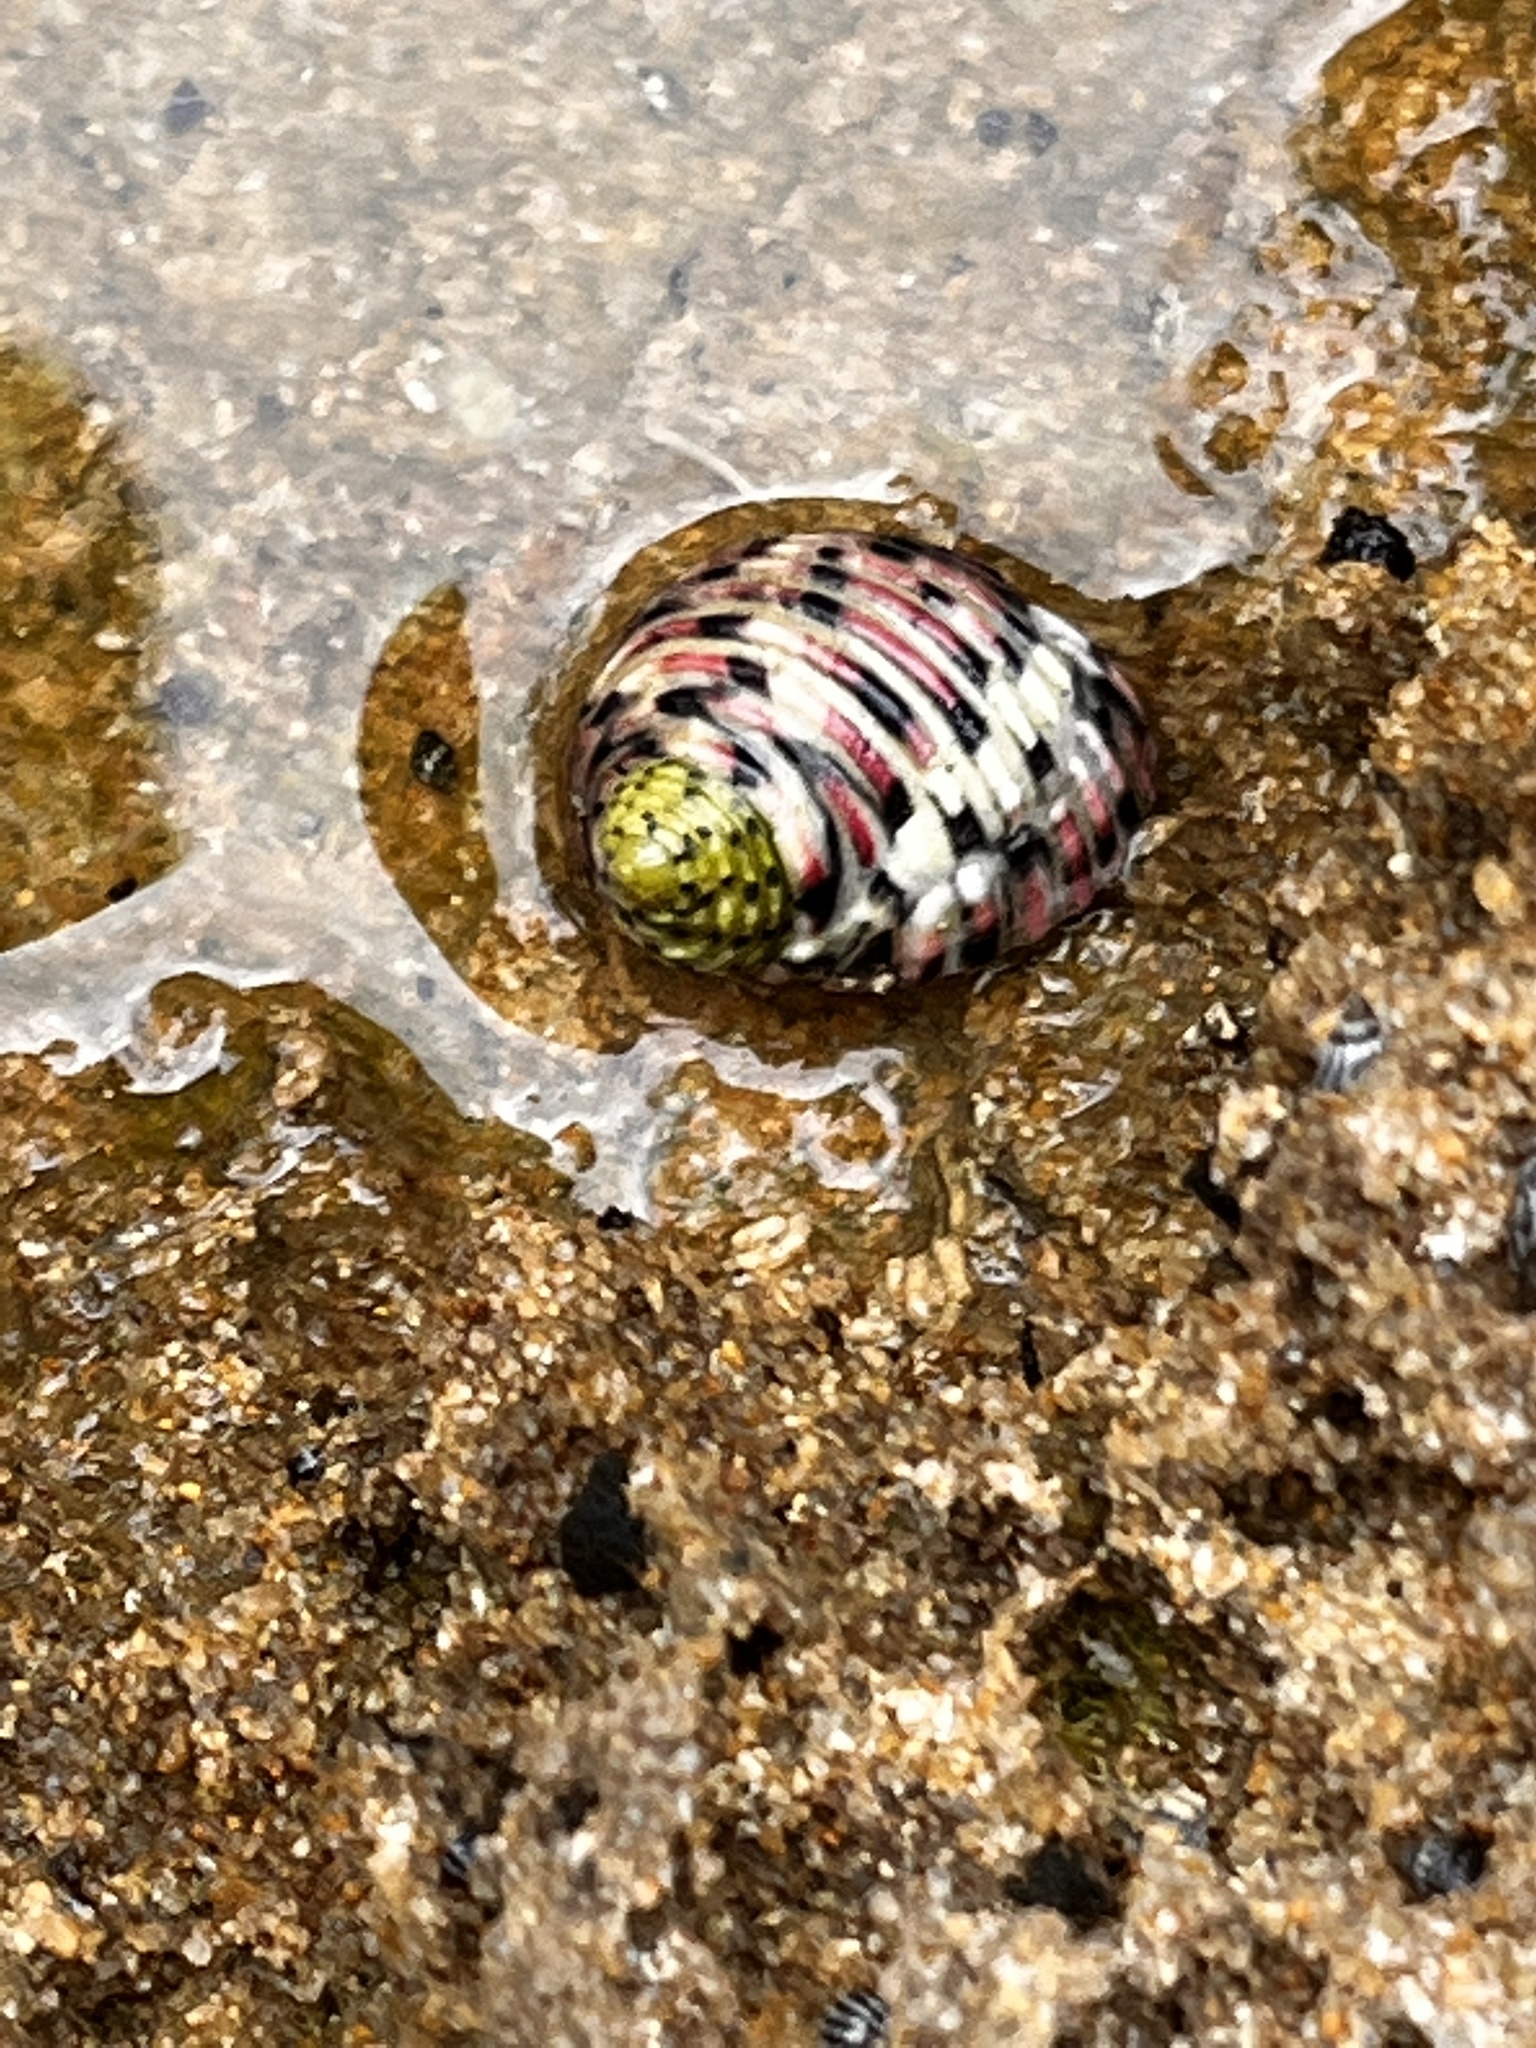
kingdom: Animalia
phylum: Mollusca
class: Gastropoda
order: Cycloneritida
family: Neritidae
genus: Nerita
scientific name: Nerita versicolor
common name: Four-tooth nerite
